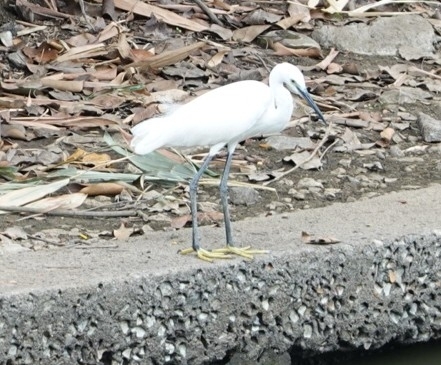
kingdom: Animalia
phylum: Chordata
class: Aves
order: Pelecaniformes
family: Ardeidae
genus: Egretta
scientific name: Egretta garzetta
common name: Little egret
